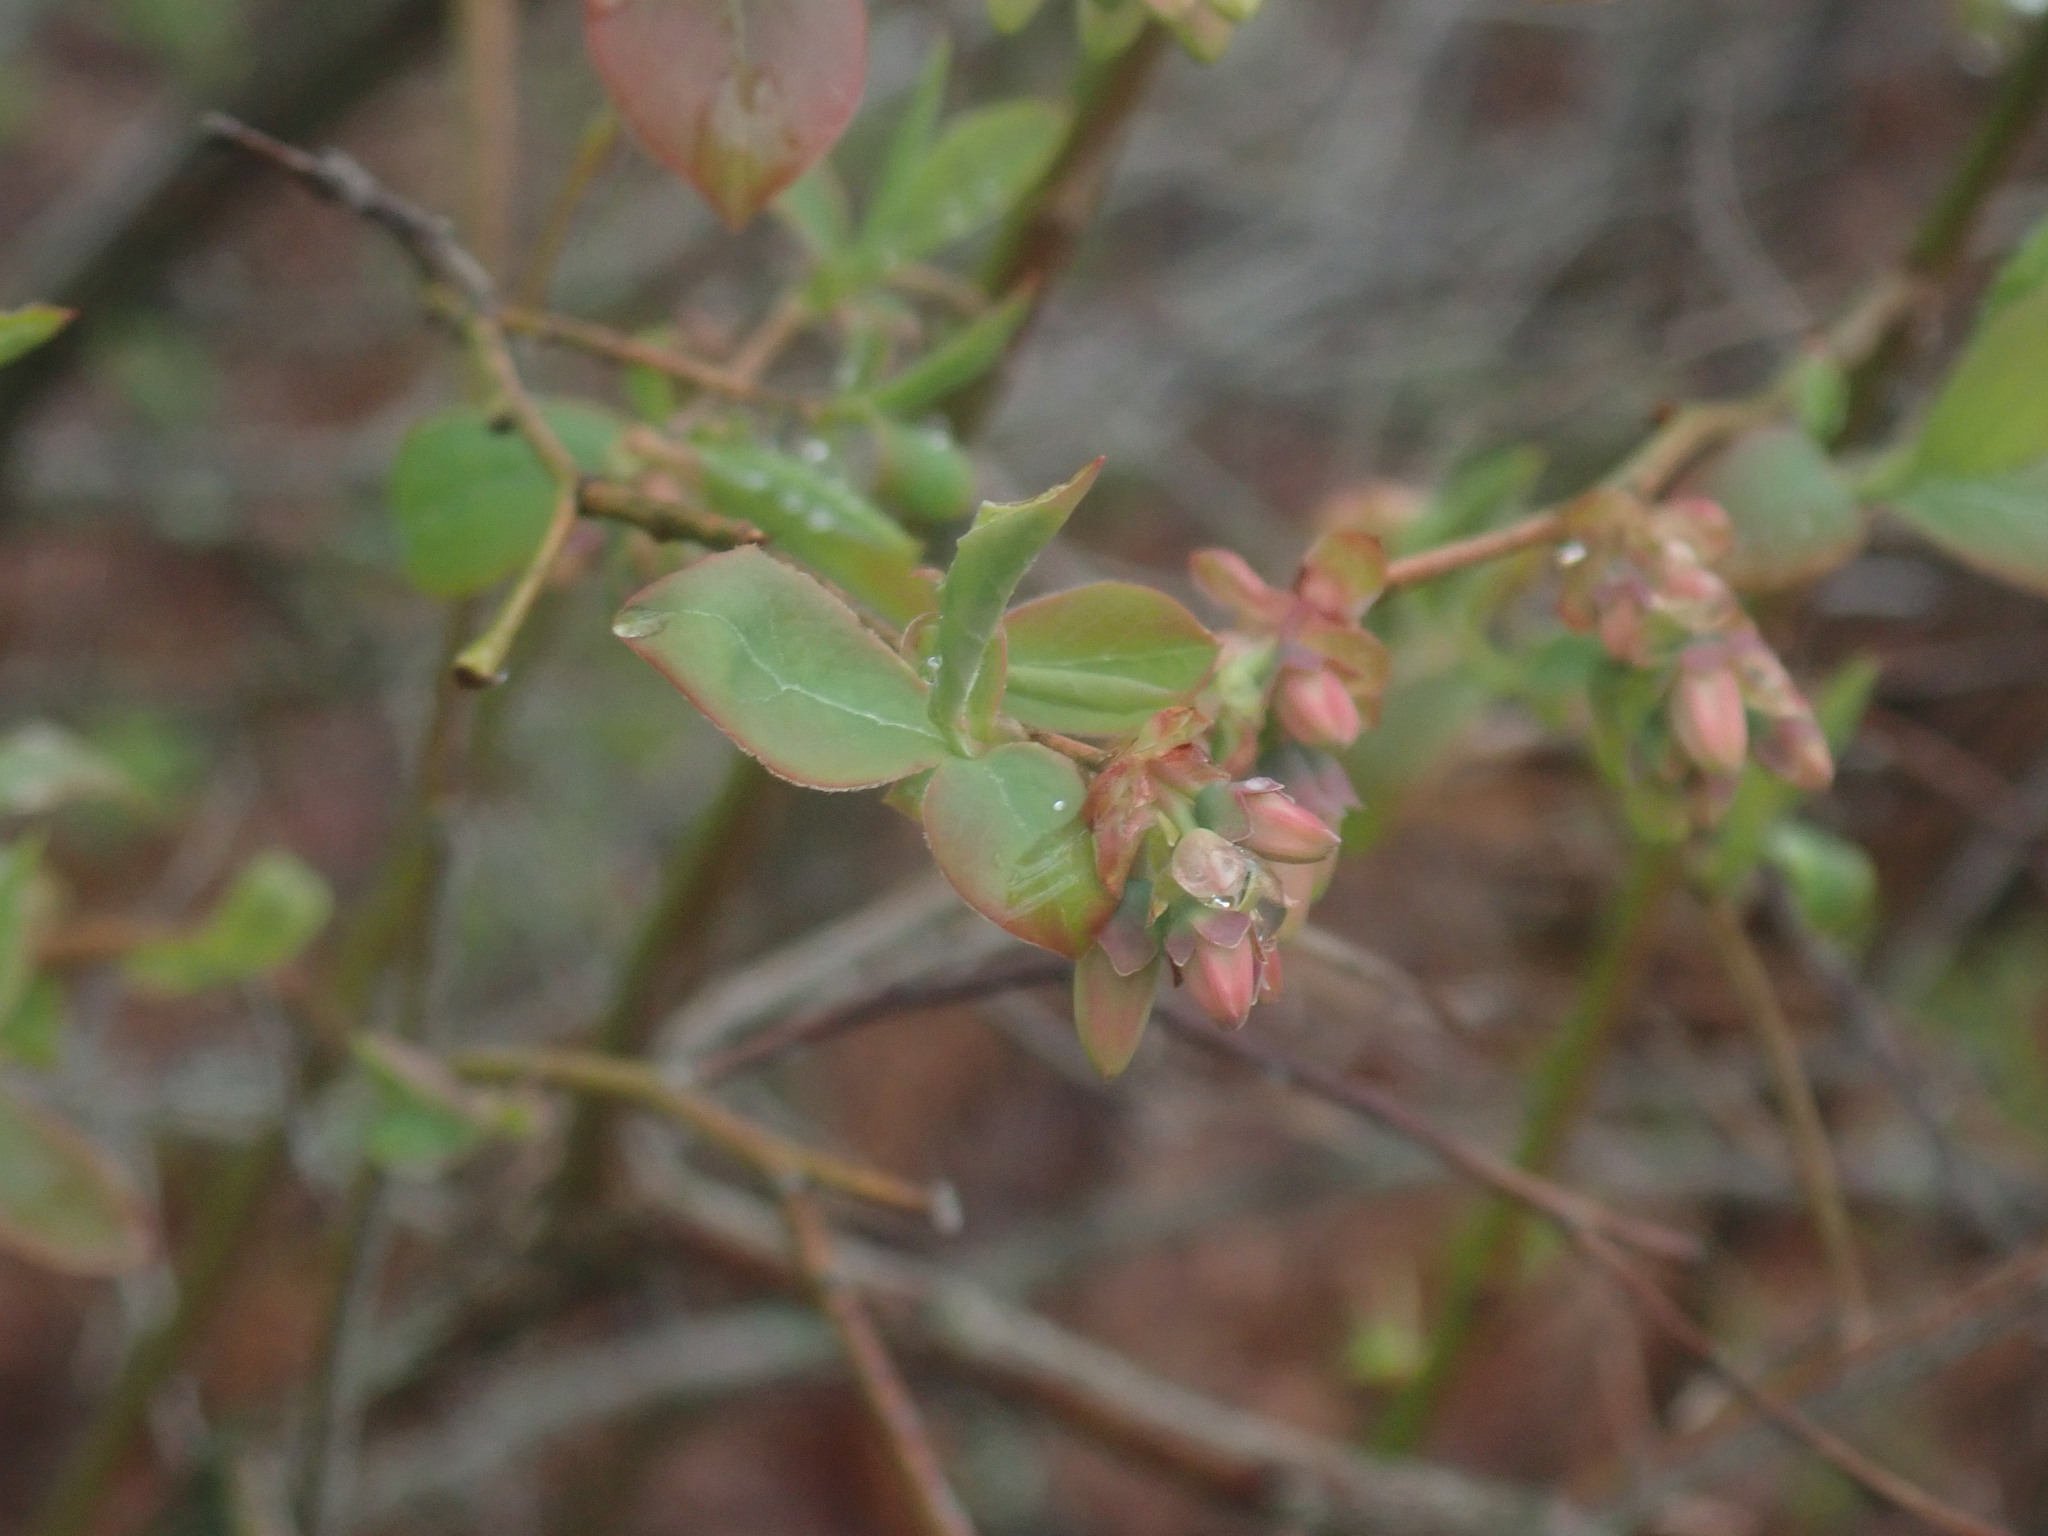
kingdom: Plantae
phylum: Tracheophyta
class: Magnoliopsida
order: Ericales
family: Ericaceae
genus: Vaccinium
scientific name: Vaccinium corymbosum
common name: Blueberry
